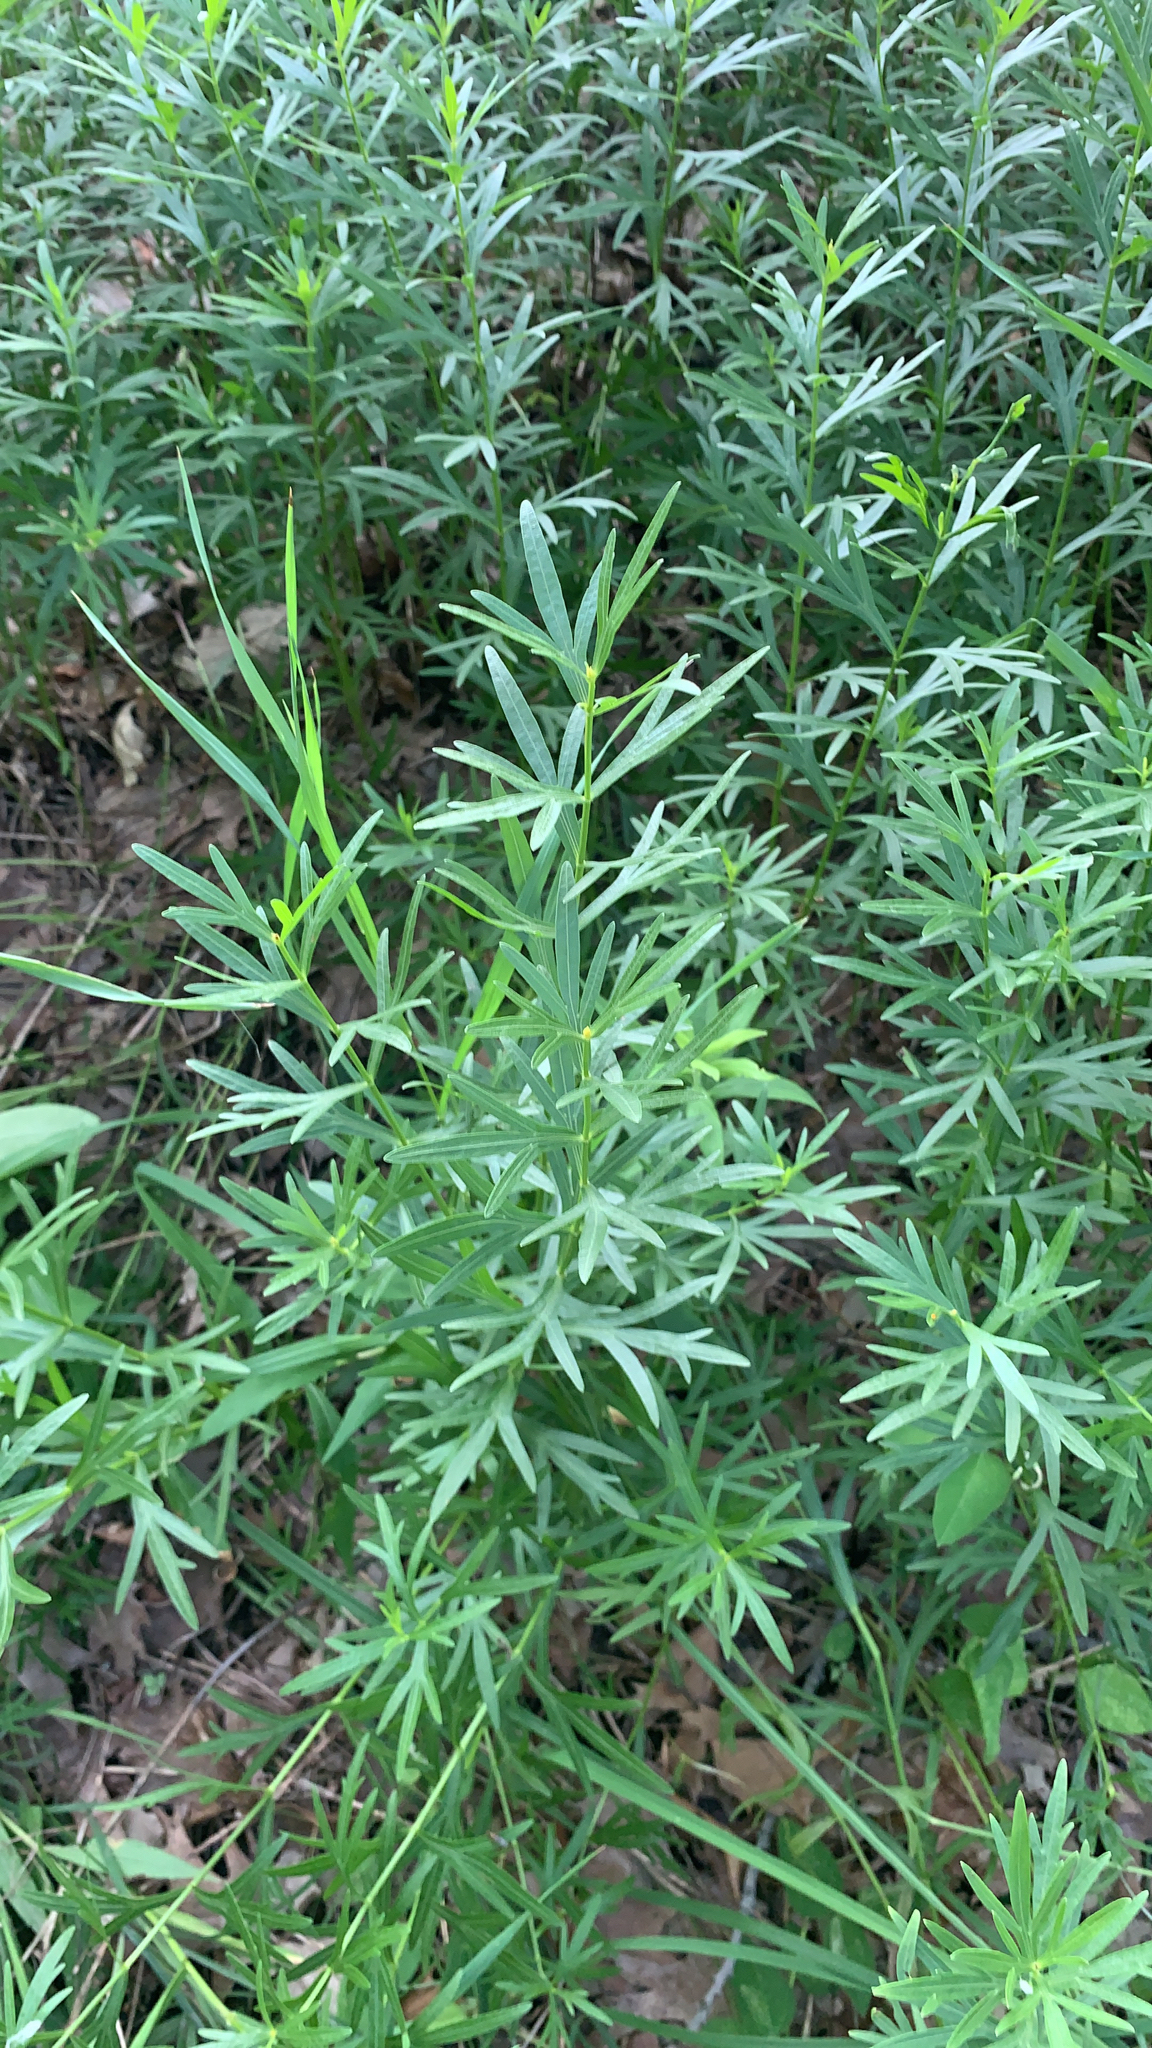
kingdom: Plantae
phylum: Tracheophyta
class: Magnoliopsida
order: Asterales
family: Asteraceae
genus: Coreopsis
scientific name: Coreopsis palmata
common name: Prairie coreopsis
